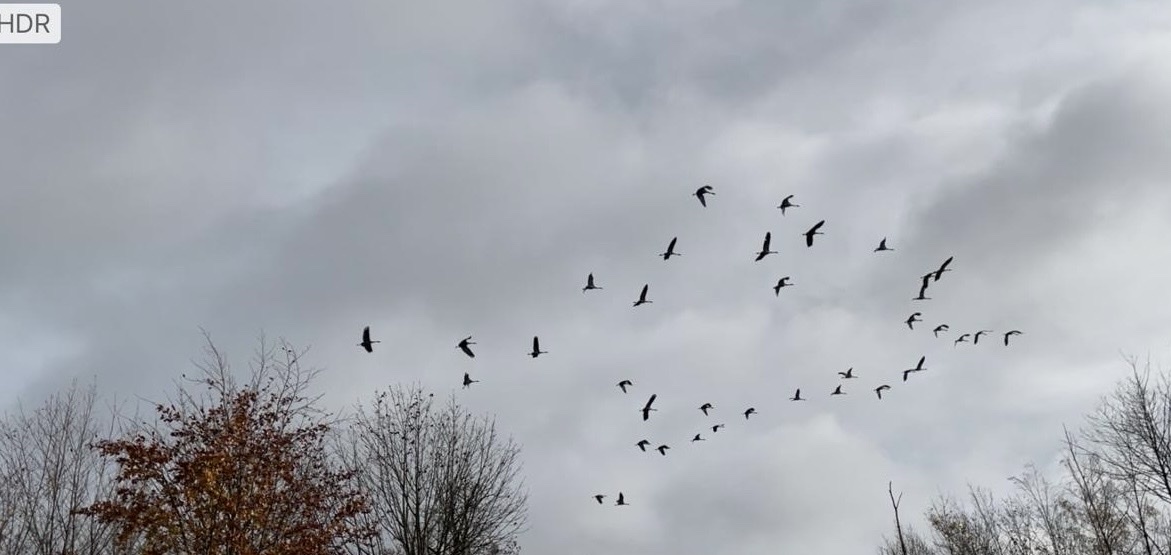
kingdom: Animalia
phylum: Chordata
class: Aves
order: Gruiformes
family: Gruidae
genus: Grus
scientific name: Grus grus
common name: Common crane
